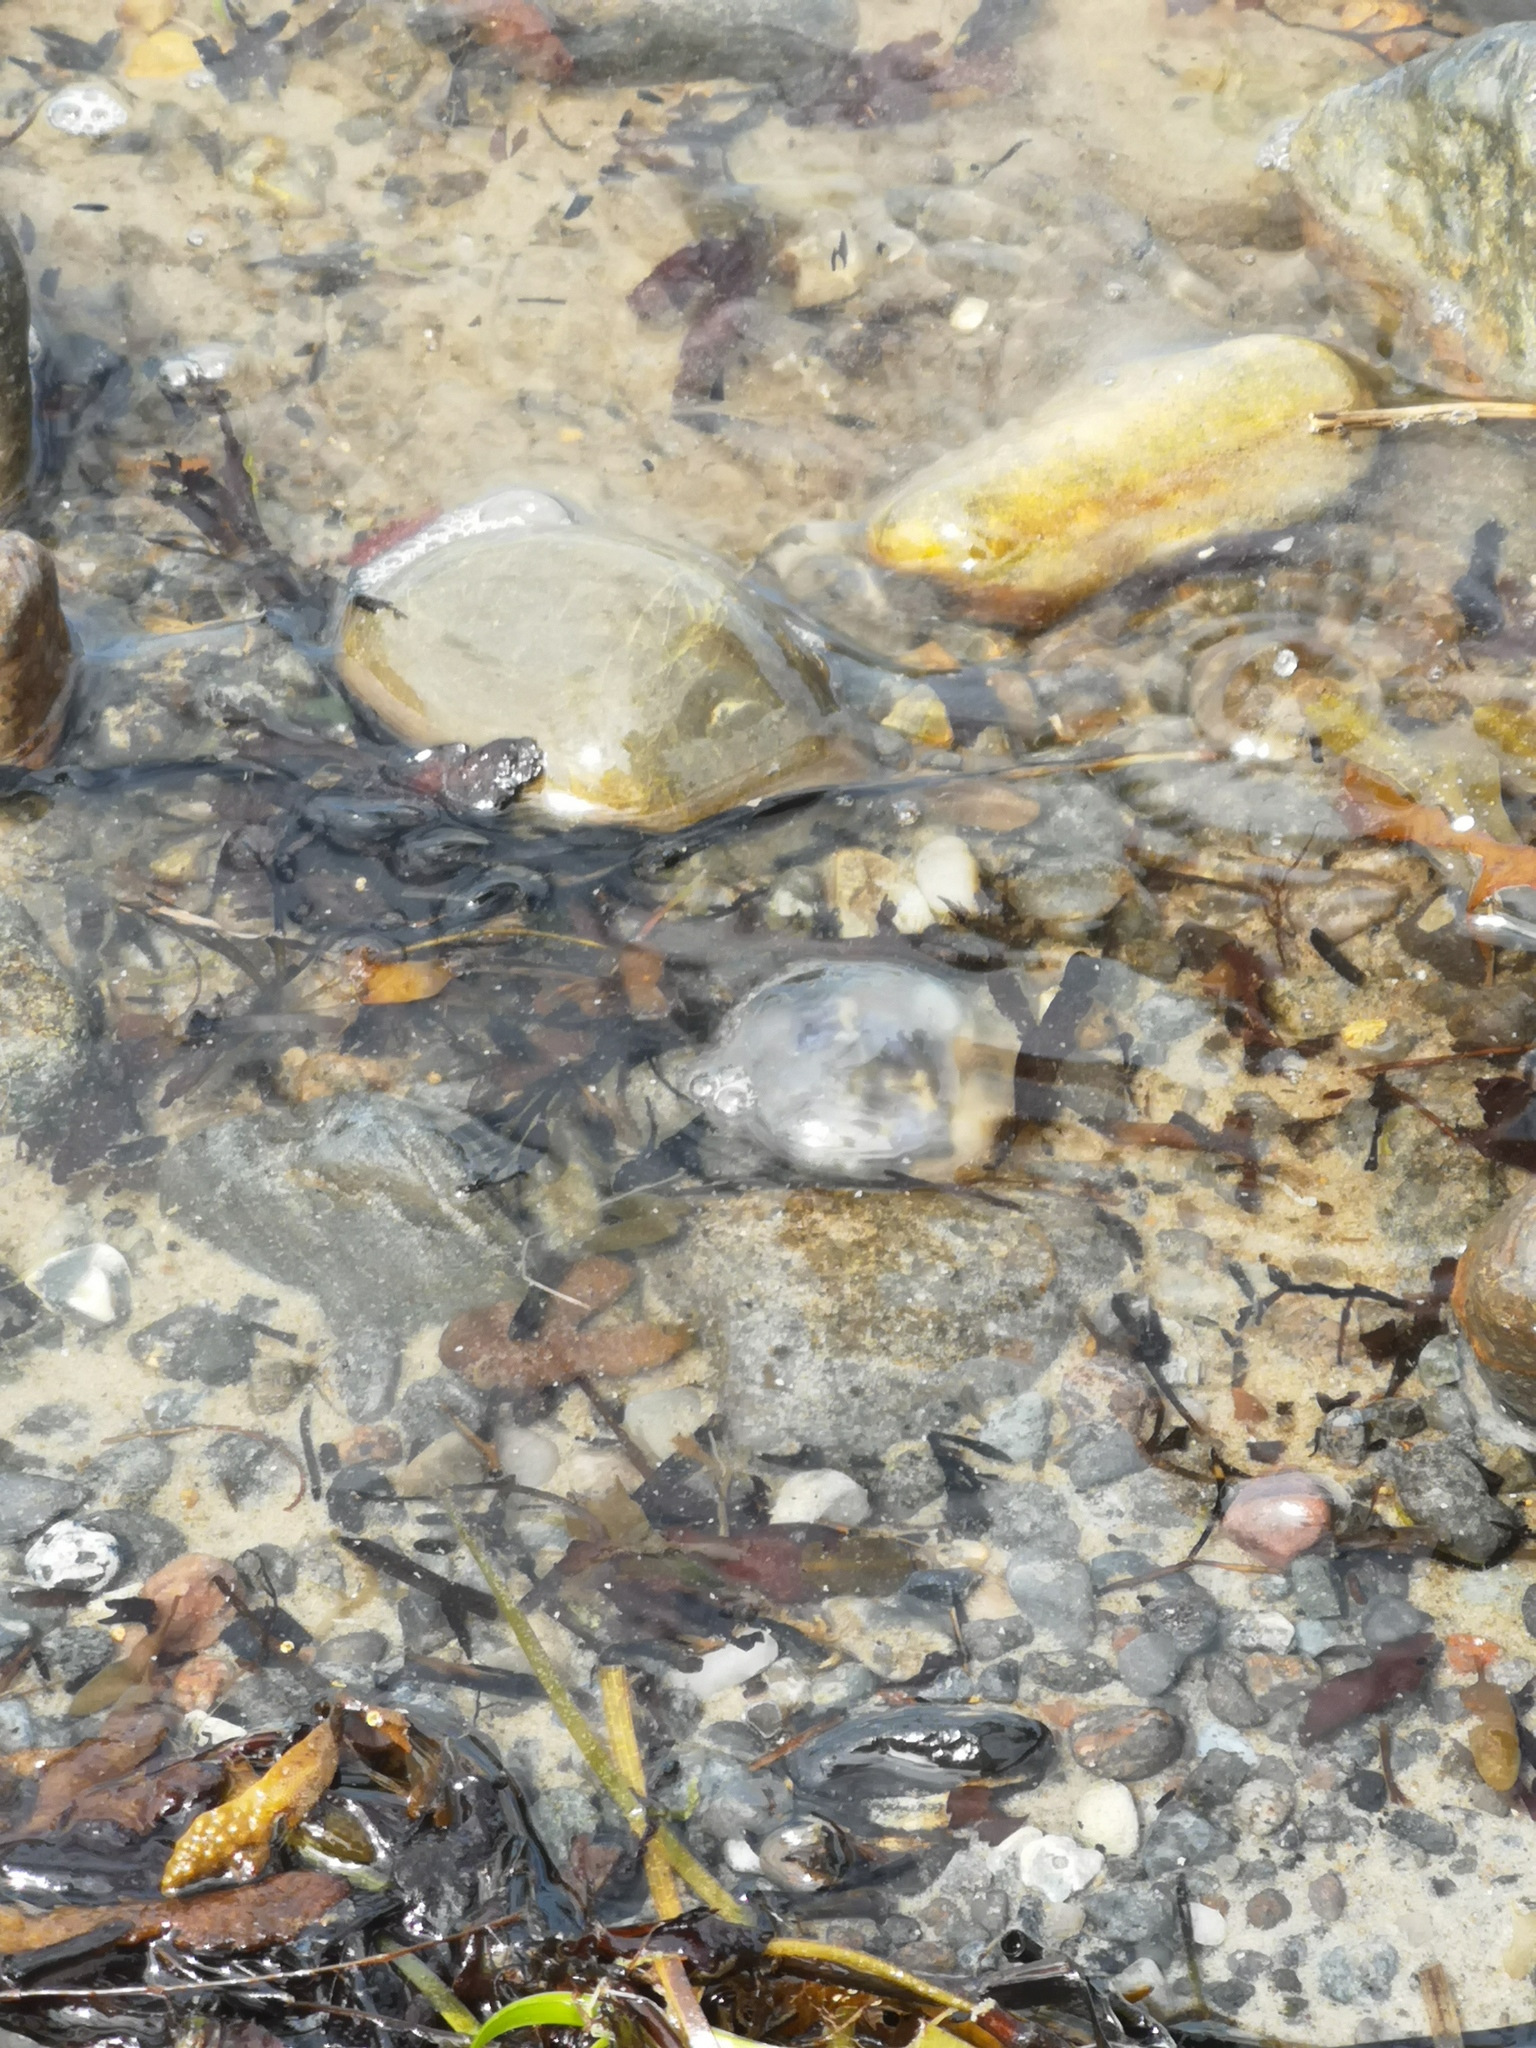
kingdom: Animalia
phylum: Cnidaria
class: Scyphozoa
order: Semaeostomeae
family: Ulmaridae
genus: Aurelia
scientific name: Aurelia aurita
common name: Moon jellyfish
